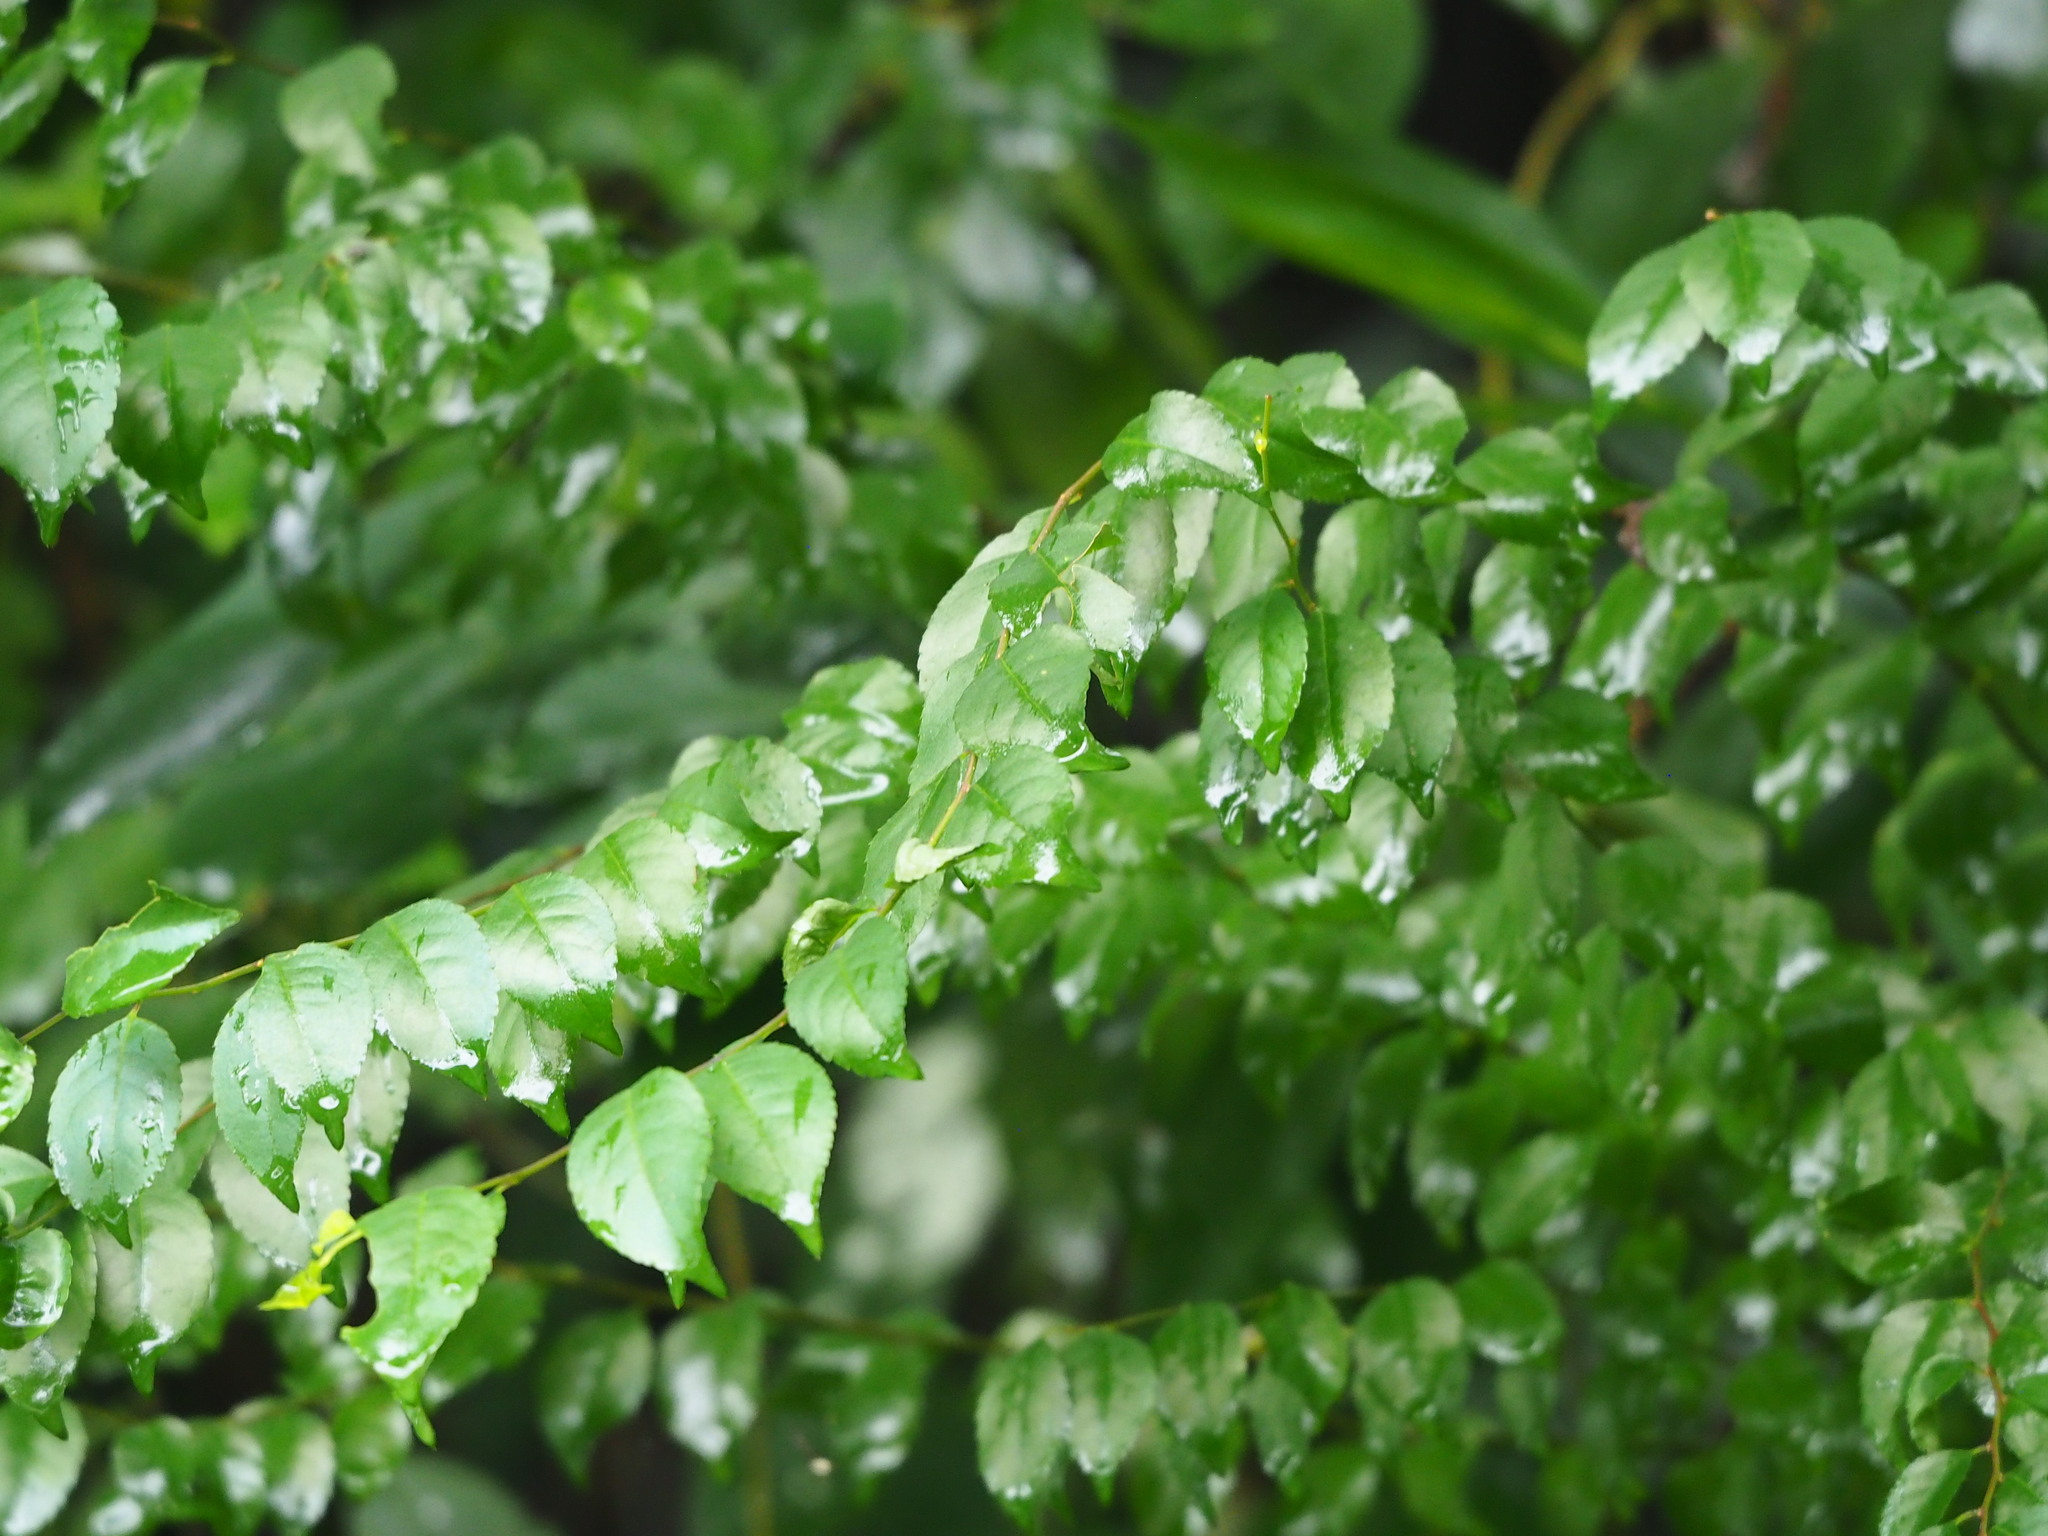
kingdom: Plantae
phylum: Tracheophyta
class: Magnoliopsida
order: Aquifoliales
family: Aquifoliaceae
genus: Ilex
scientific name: Ilex asprella
